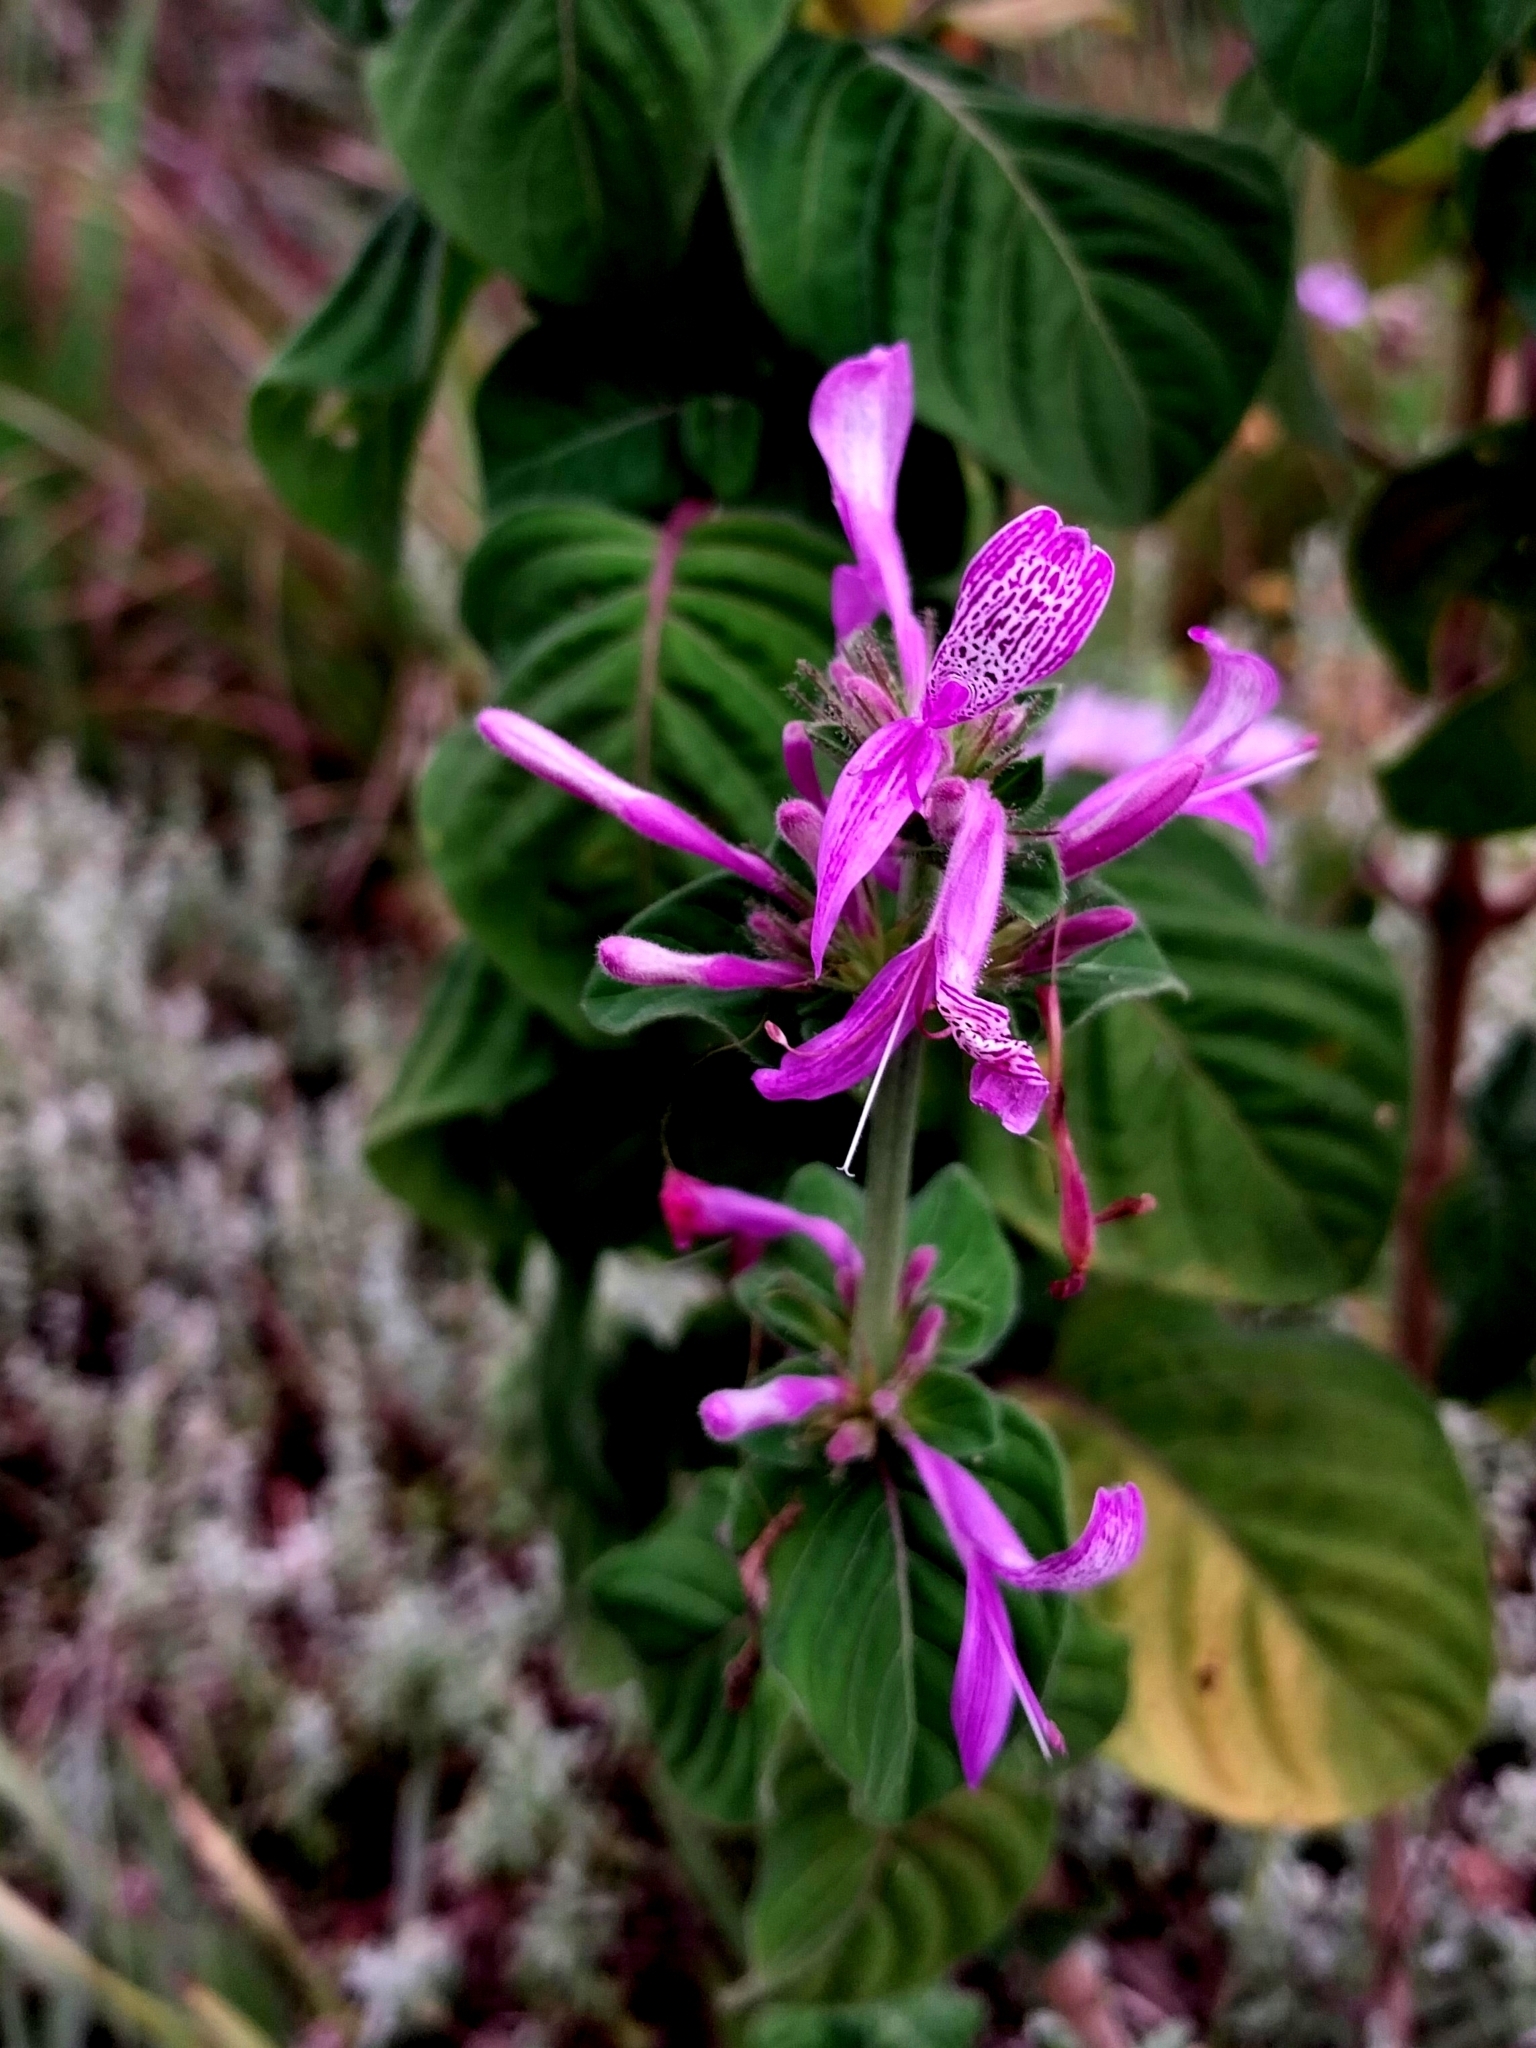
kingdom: Plantae
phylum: Tracheophyta
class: Magnoliopsida
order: Lamiales
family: Acanthaceae
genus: Hypoestes
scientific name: Hypoestes aristata
